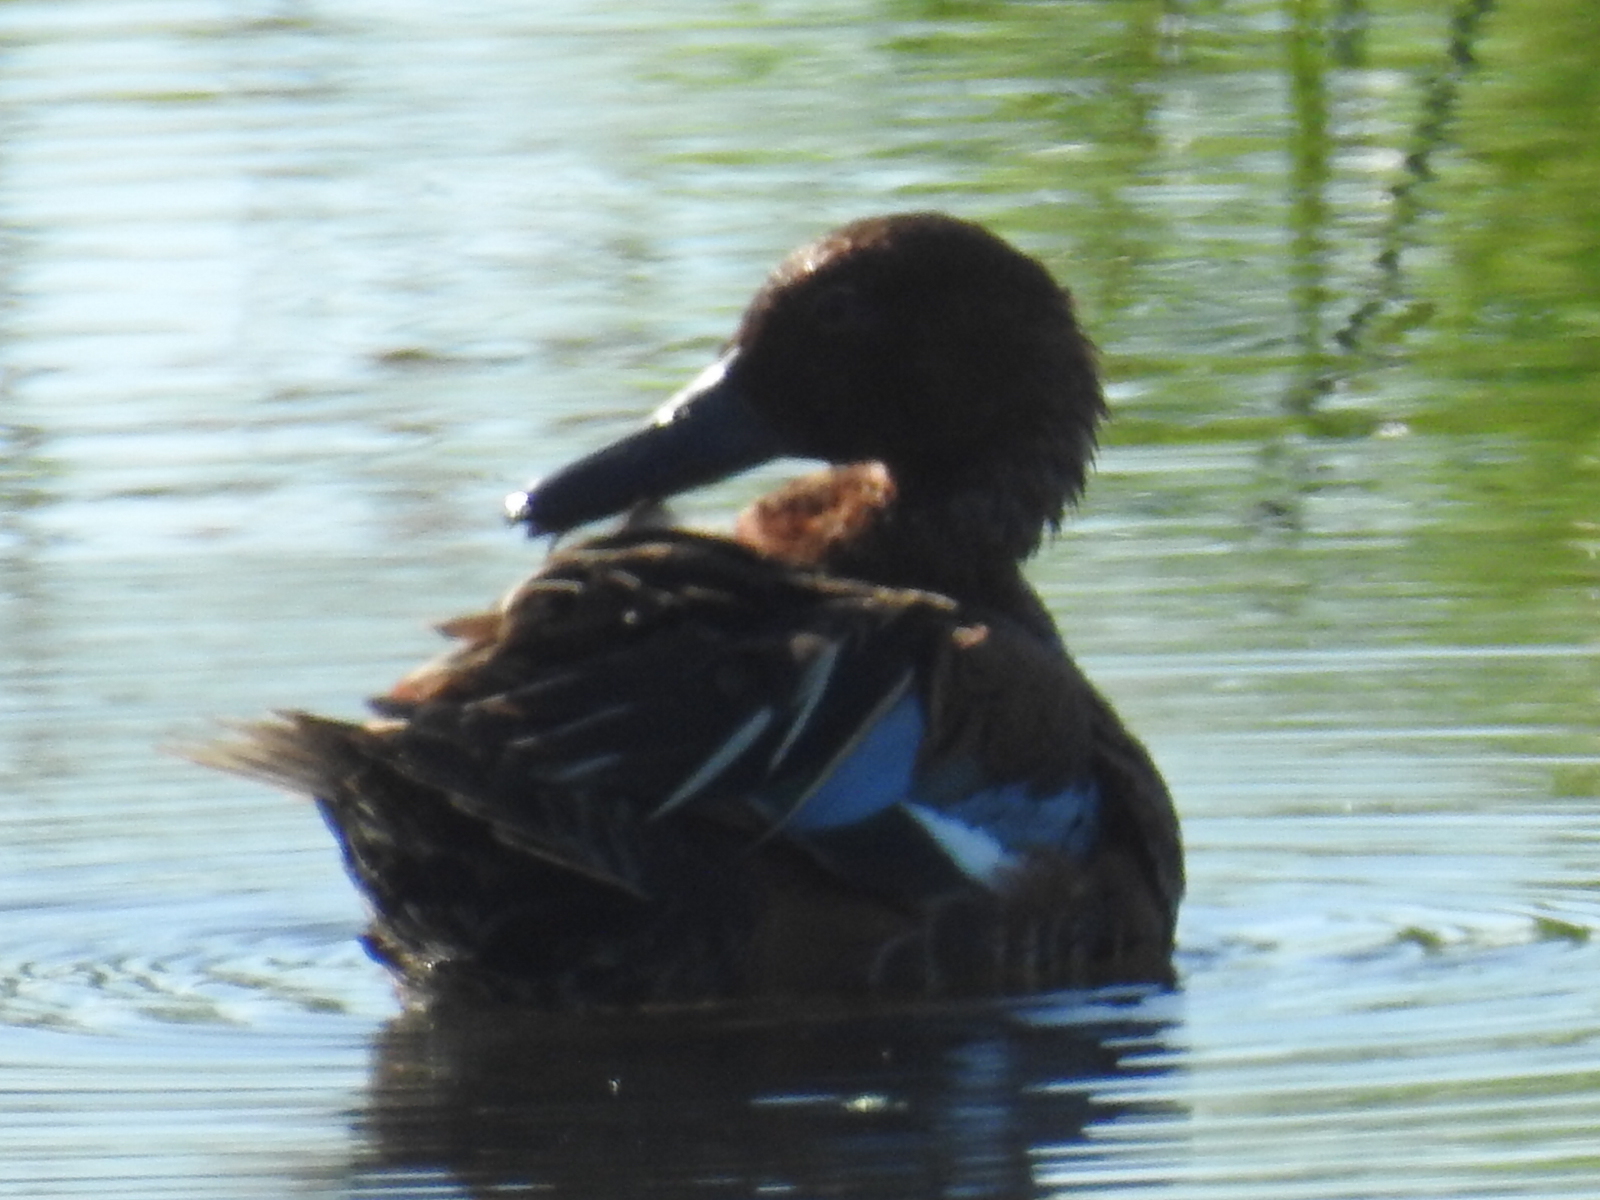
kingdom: Animalia
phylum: Chordata
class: Aves
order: Anseriformes
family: Anatidae
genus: Spatula
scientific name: Spatula cyanoptera
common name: Cinnamon teal
